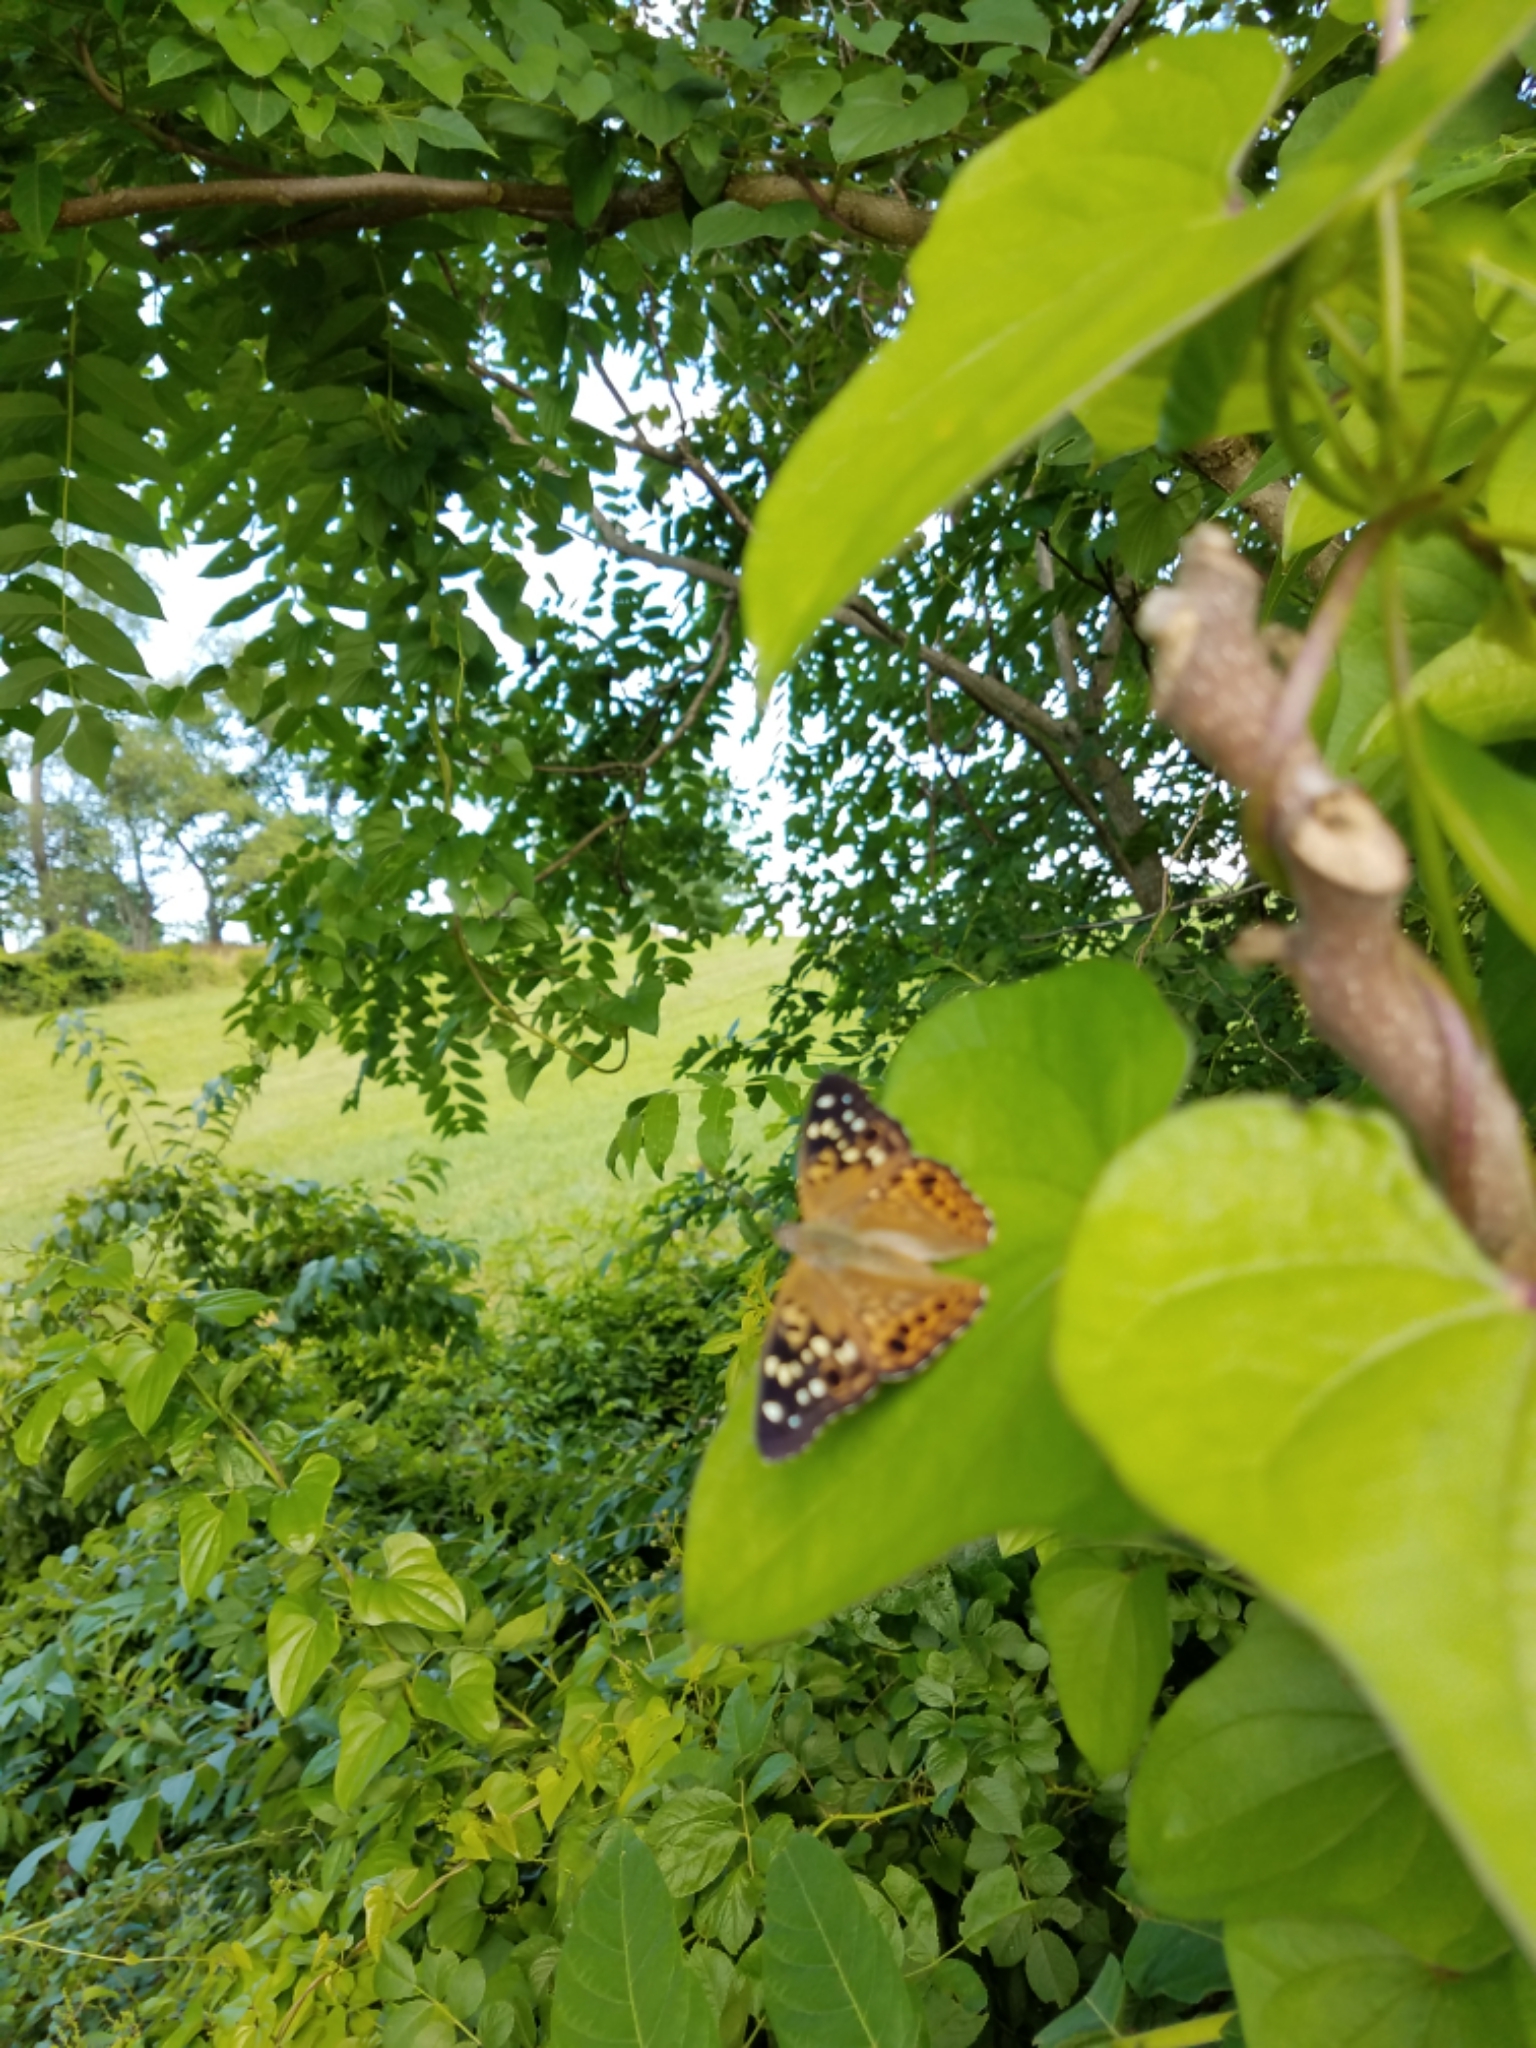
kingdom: Animalia
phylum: Arthropoda
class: Insecta
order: Lepidoptera
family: Nymphalidae
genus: Asterocampa
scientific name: Asterocampa celtis
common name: Hackberry emperor
